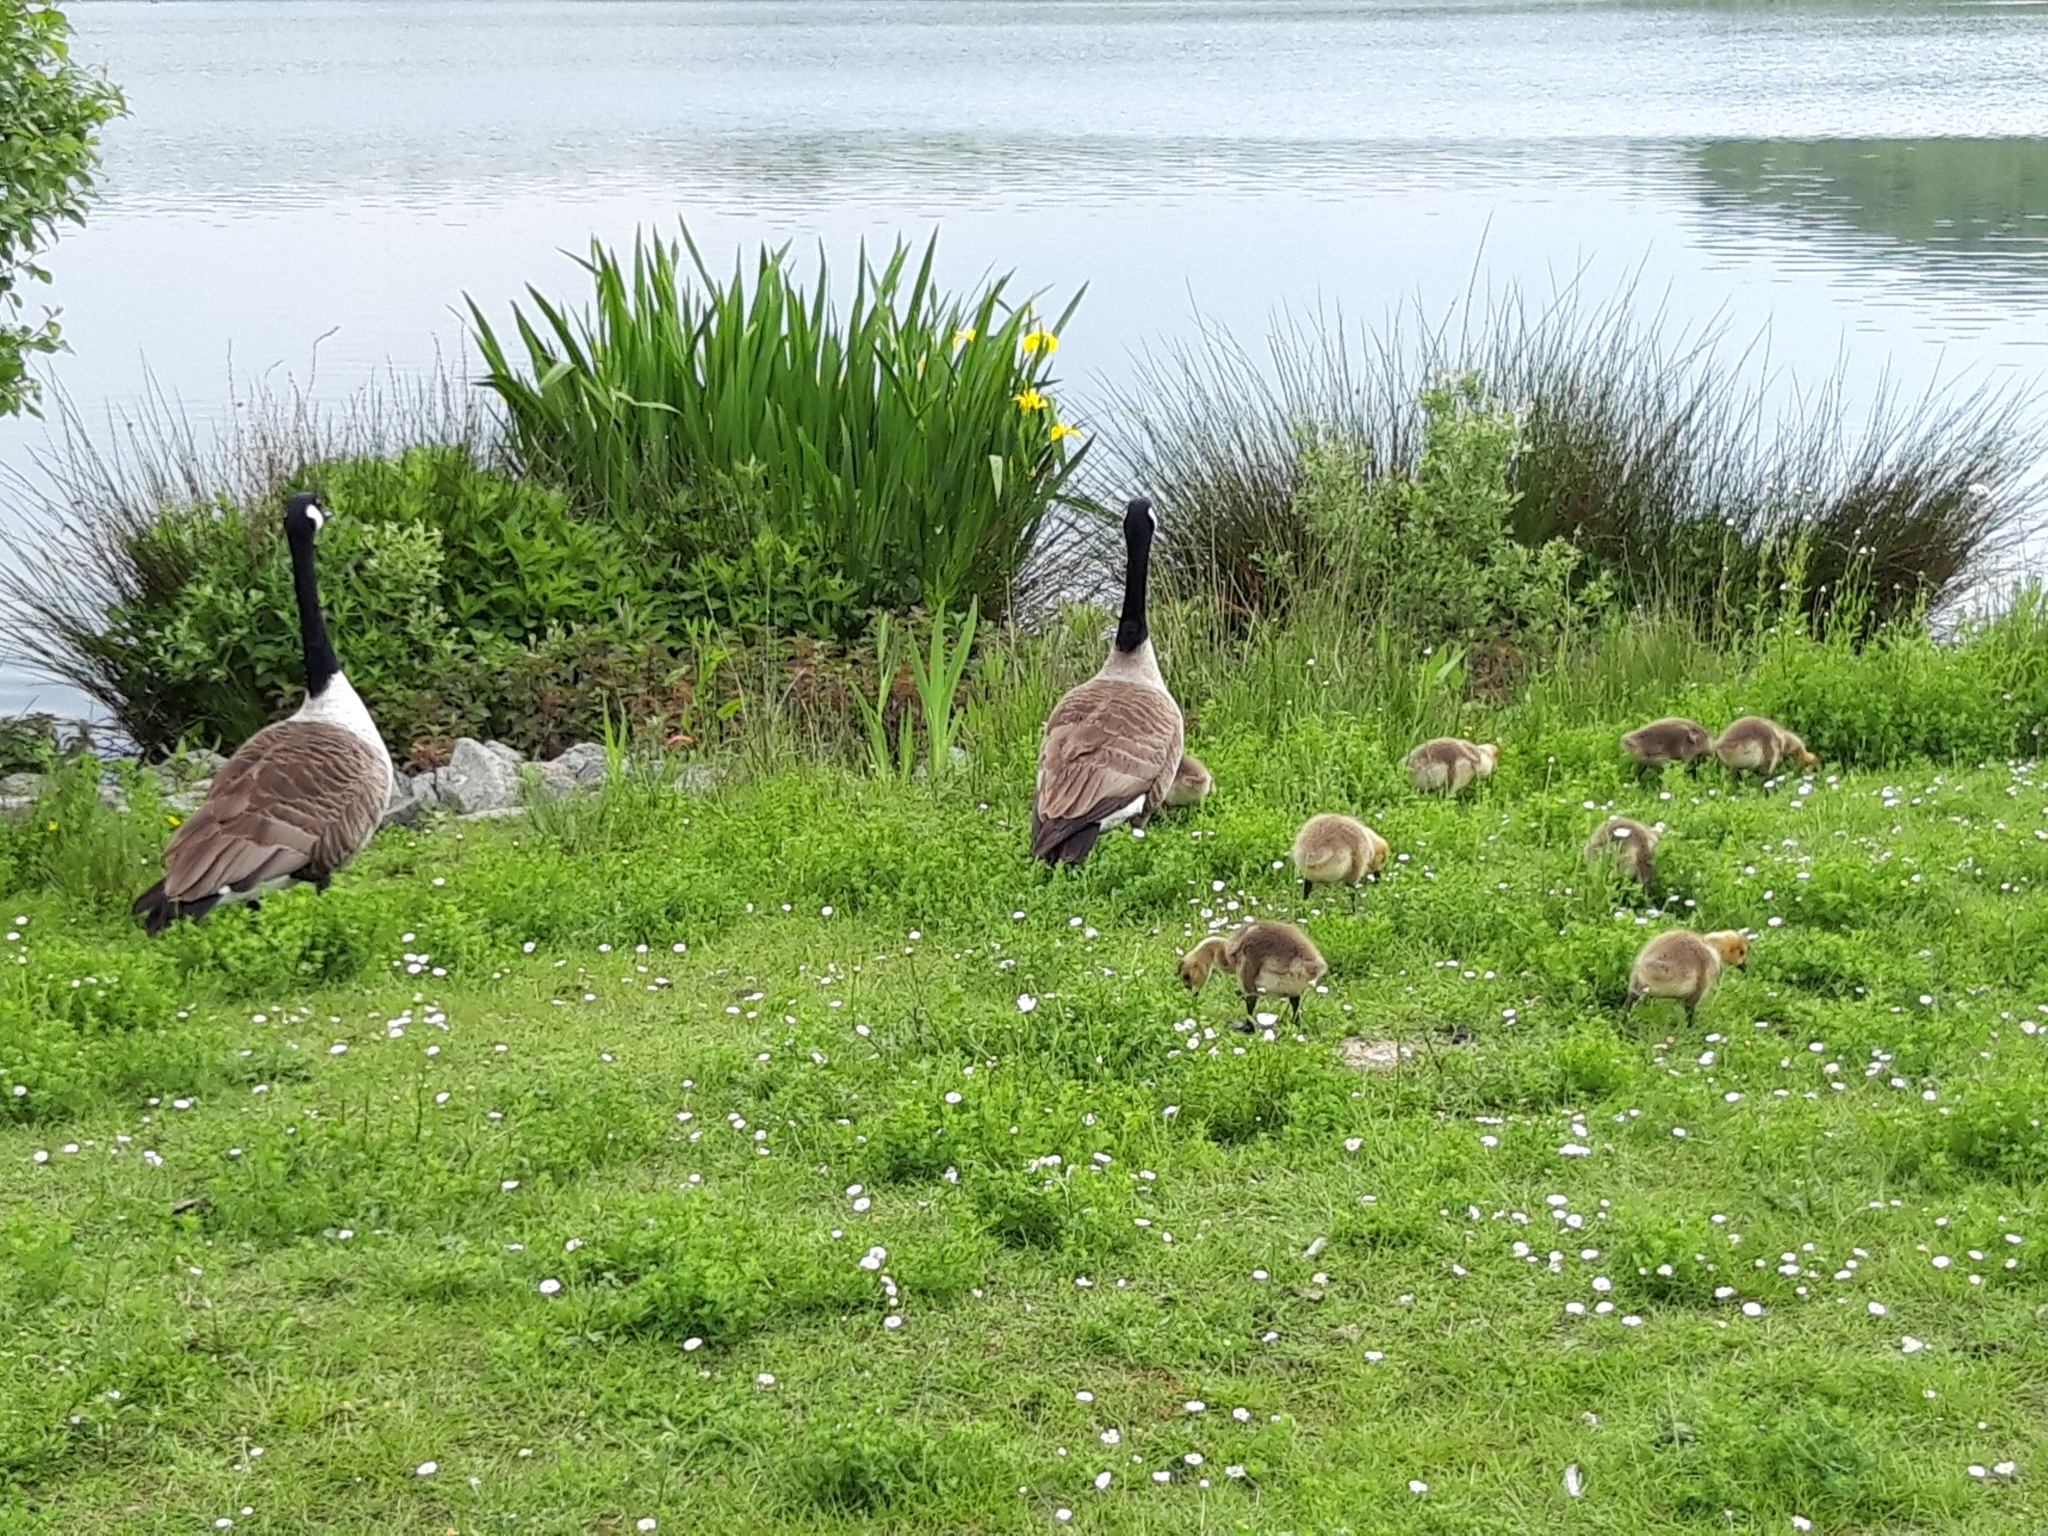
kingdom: Animalia
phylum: Chordata
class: Aves
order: Anseriformes
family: Anatidae
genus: Branta
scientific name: Branta canadensis
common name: Canada goose
